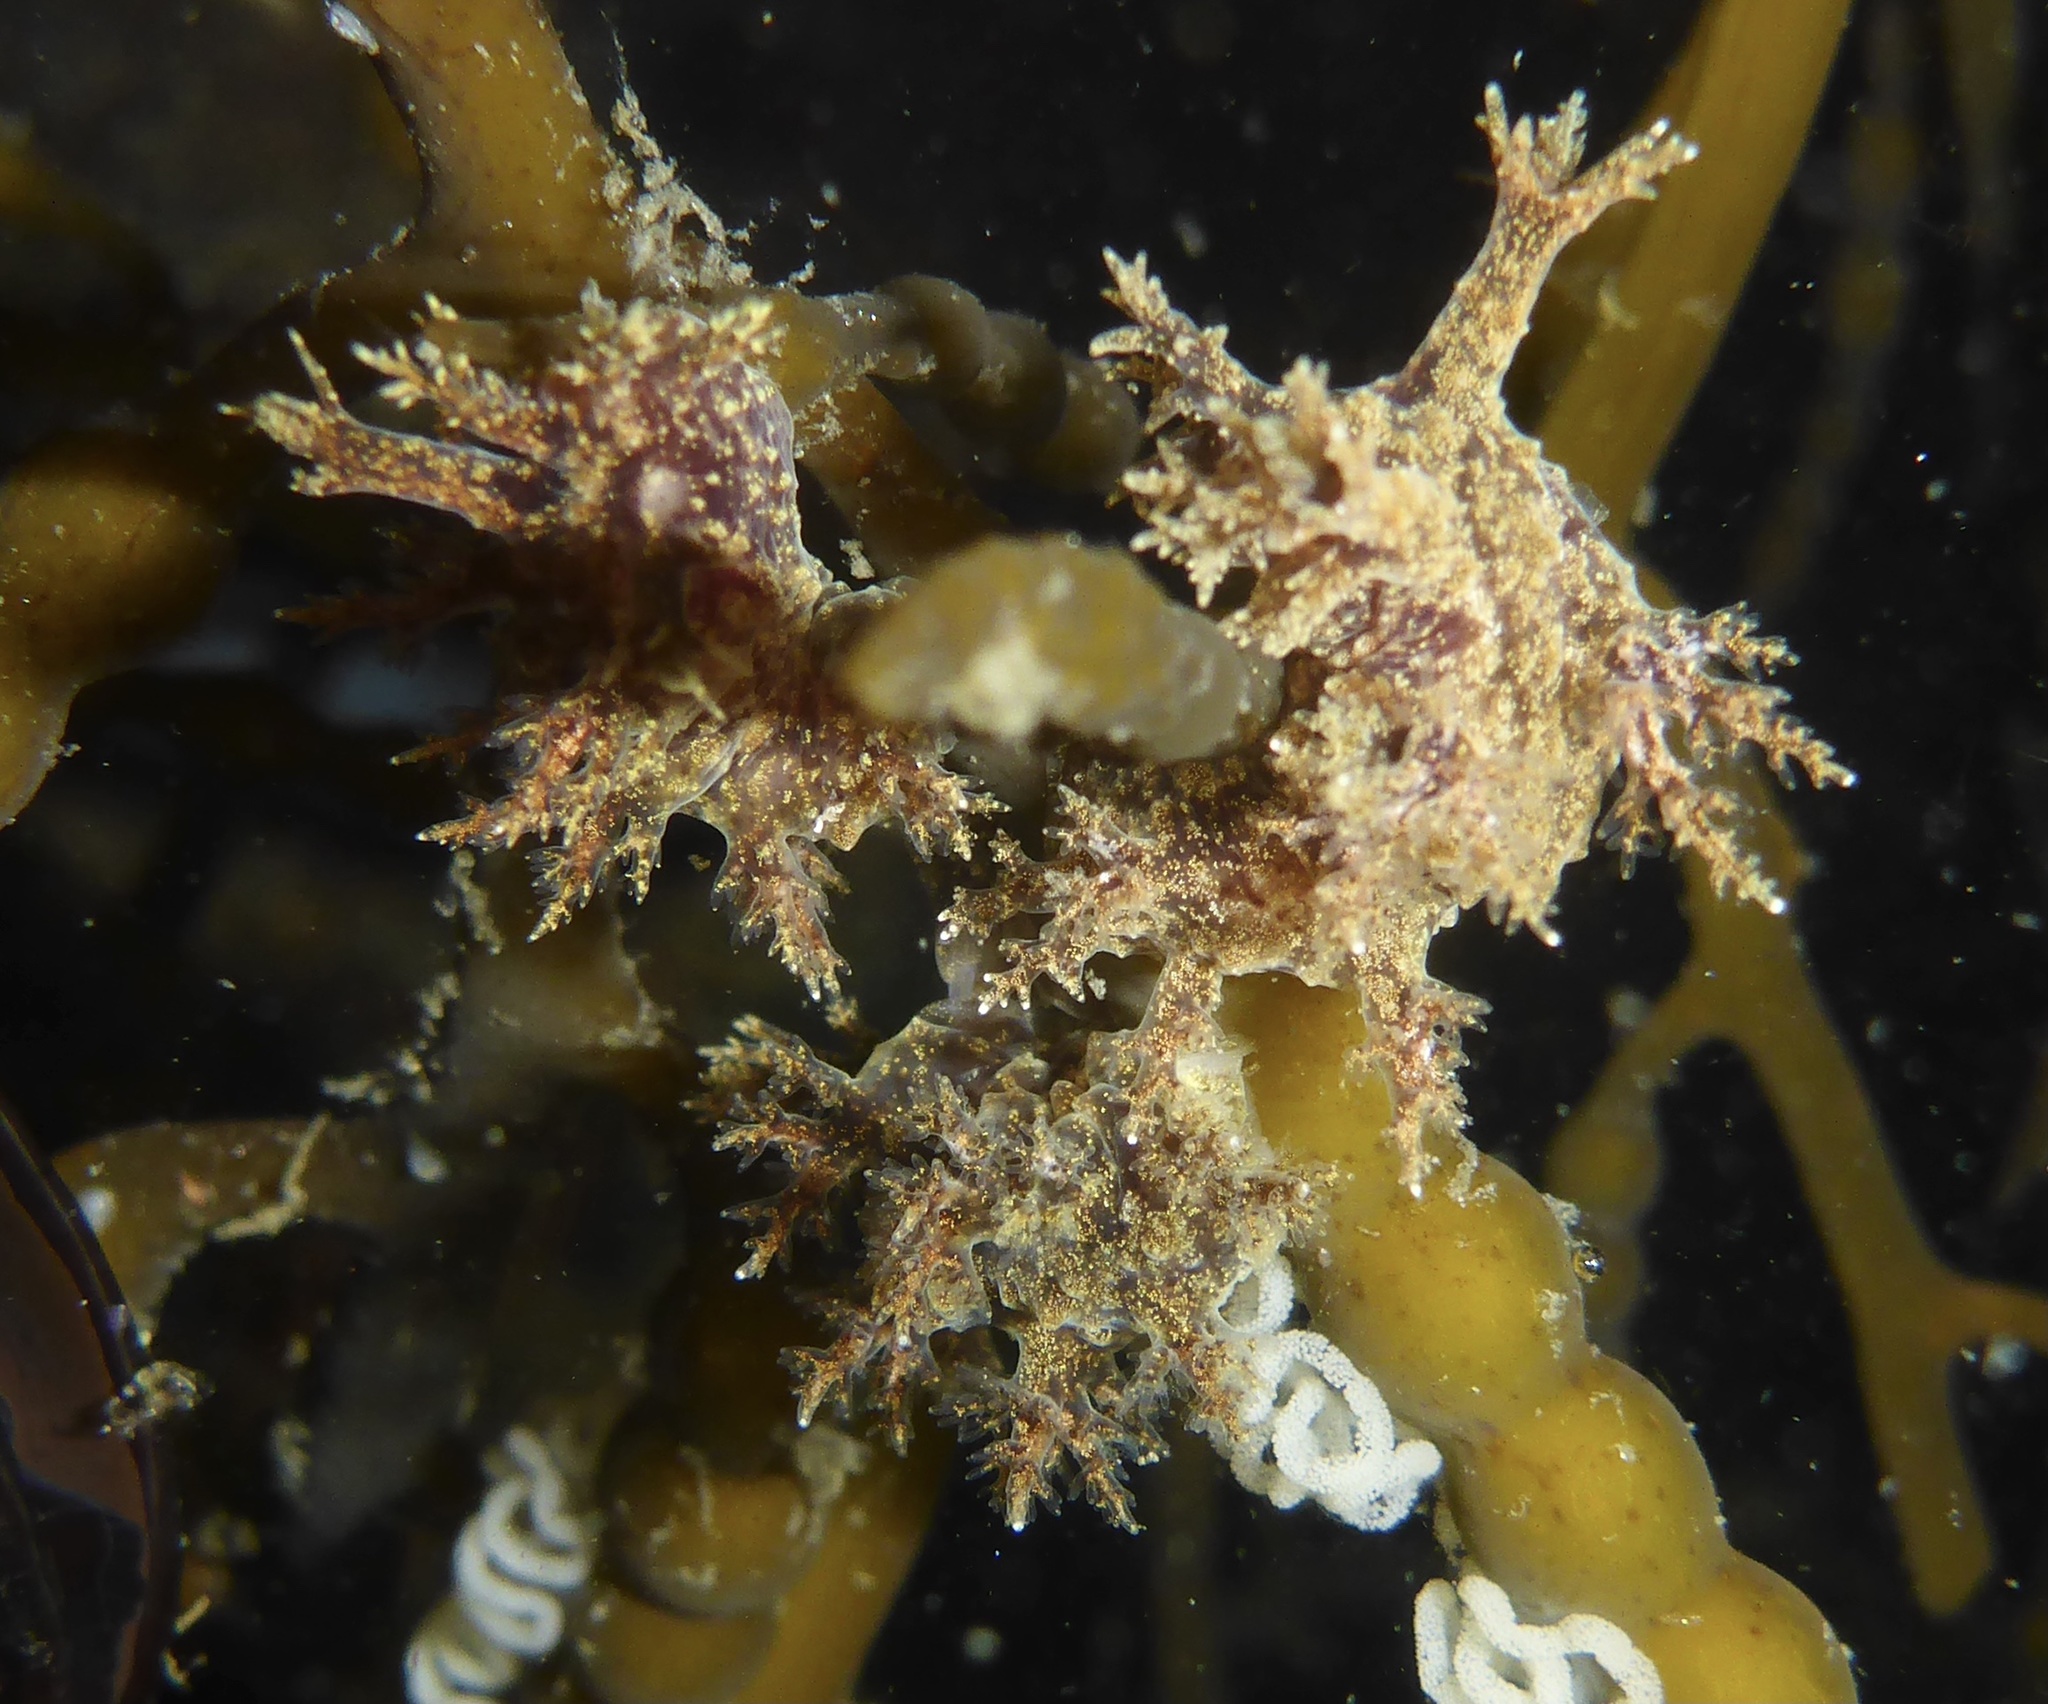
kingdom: Animalia
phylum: Mollusca
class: Gastropoda
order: Nudibranchia
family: Dendronotidae
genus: Dendronotus
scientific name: Dendronotus venustus
